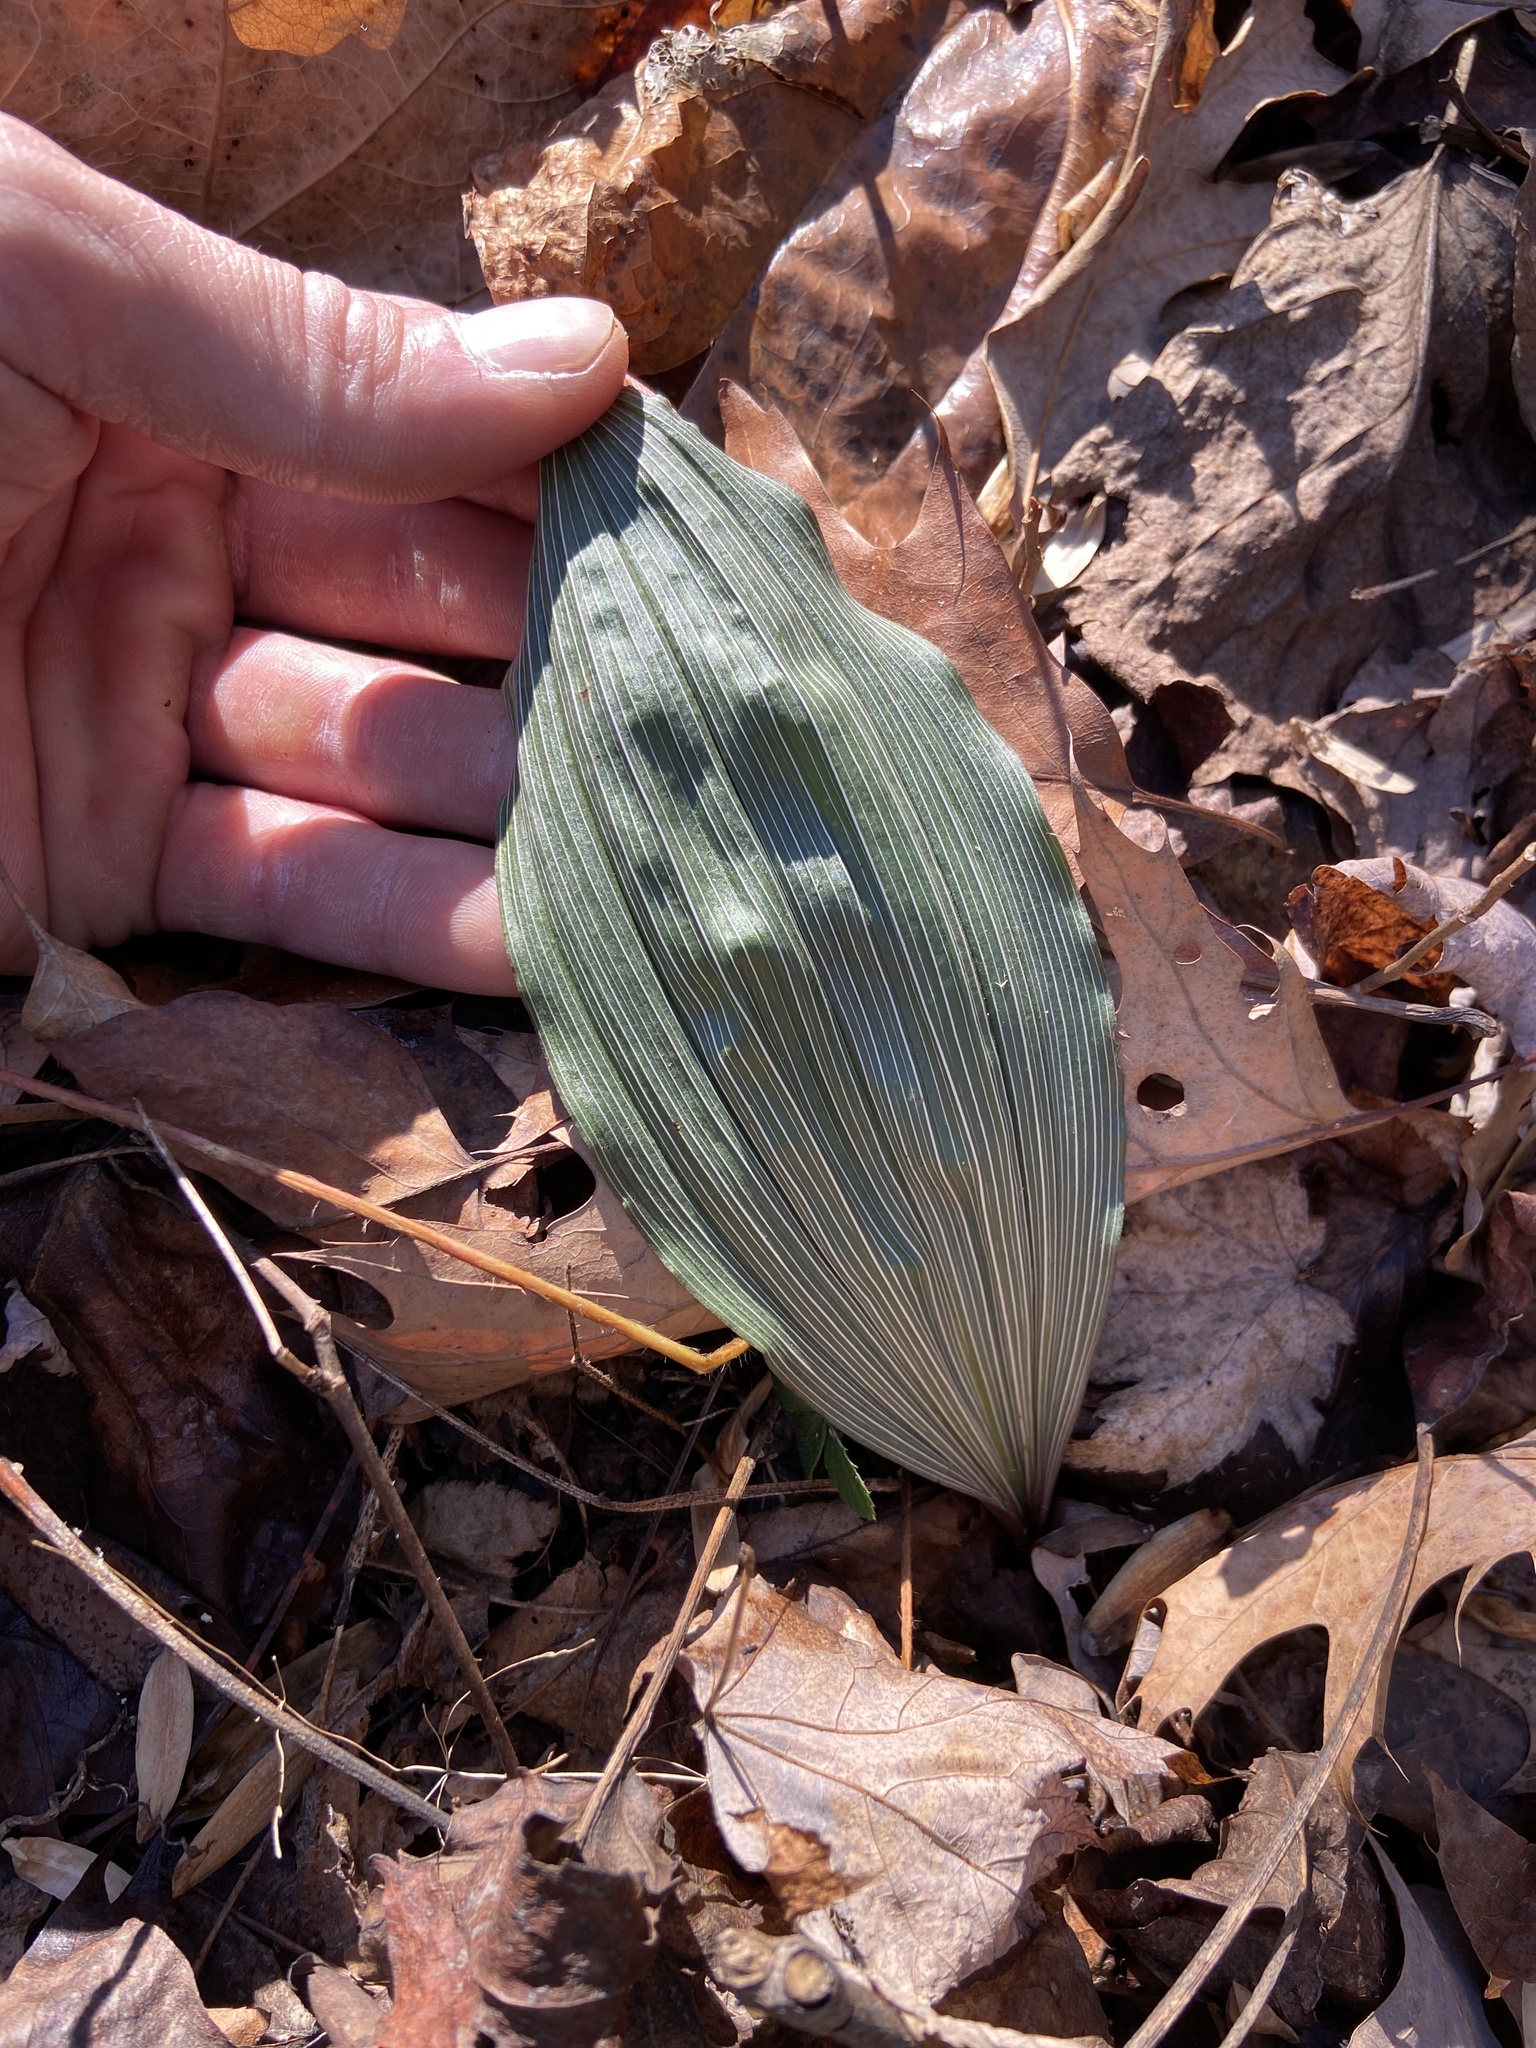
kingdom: Plantae
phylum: Tracheophyta
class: Liliopsida
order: Asparagales
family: Orchidaceae
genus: Aplectrum
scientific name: Aplectrum hyemale
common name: Adam-and-eve
